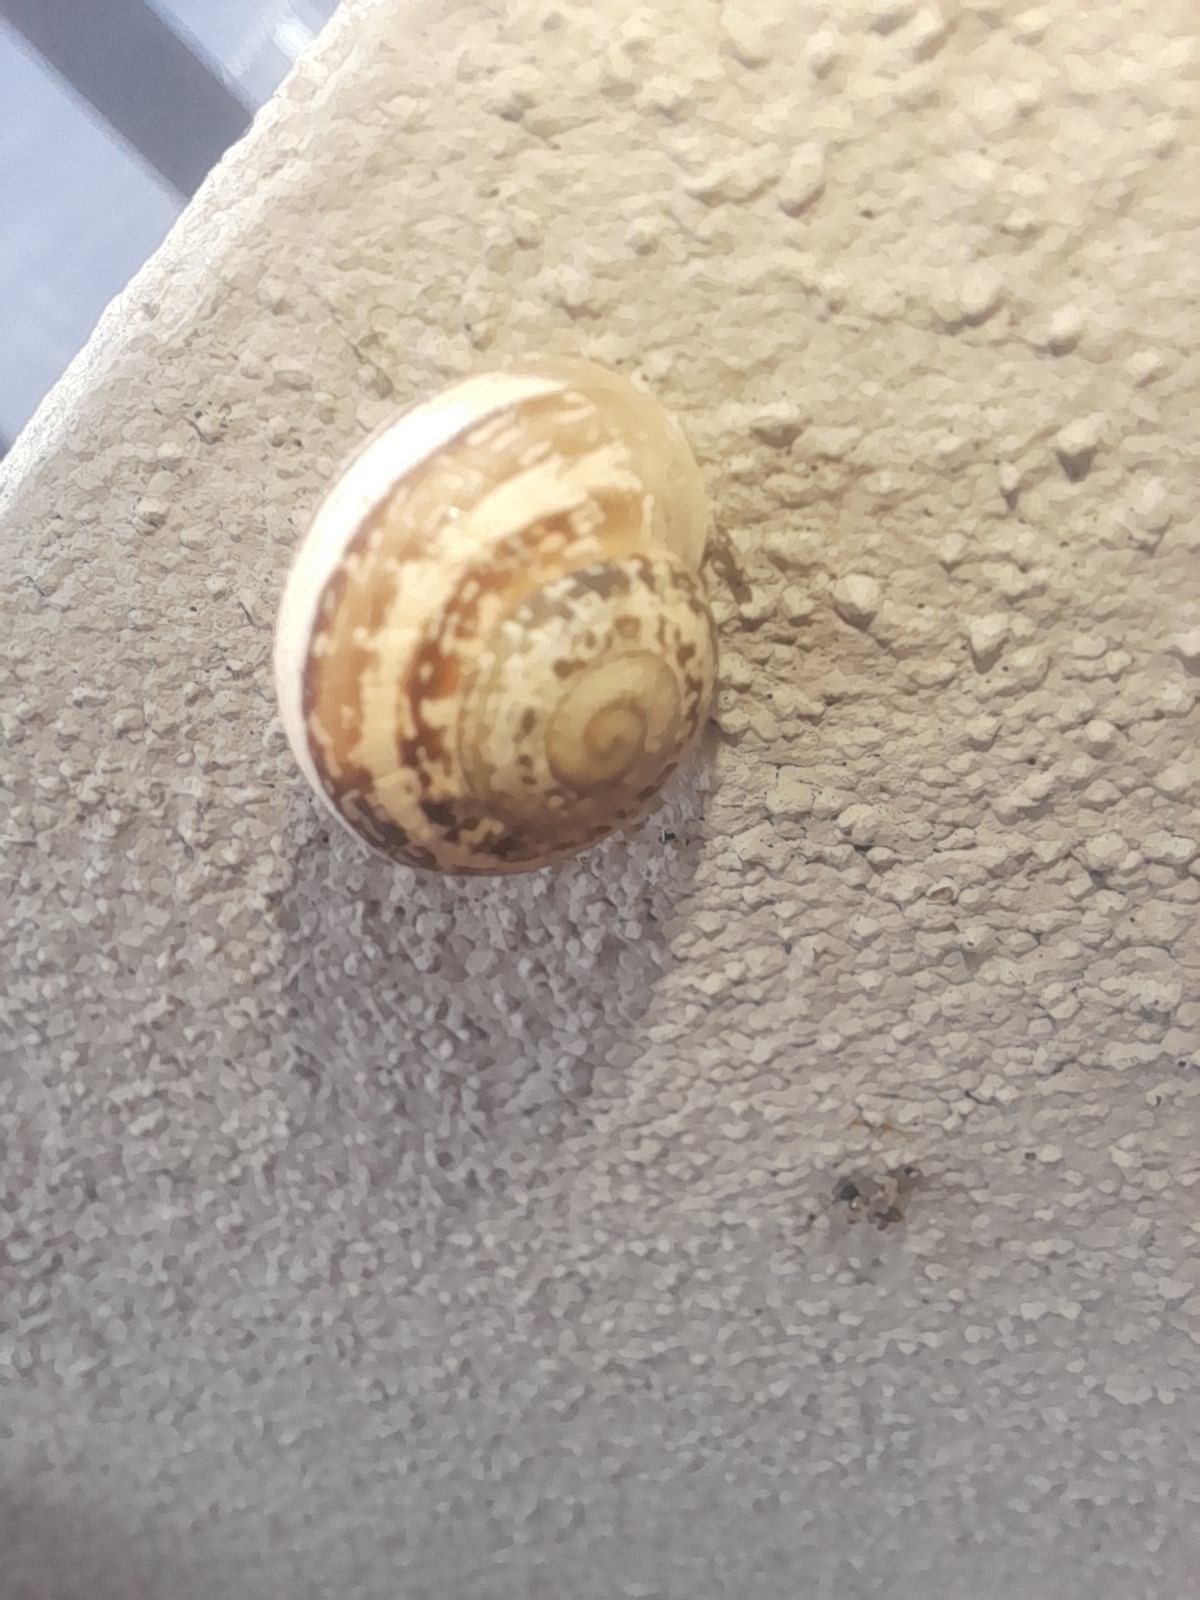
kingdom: Animalia
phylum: Mollusca
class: Gastropoda
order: Stylommatophora
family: Helicidae
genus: Eobania
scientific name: Eobania vermiculata
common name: Chocolateband snail
